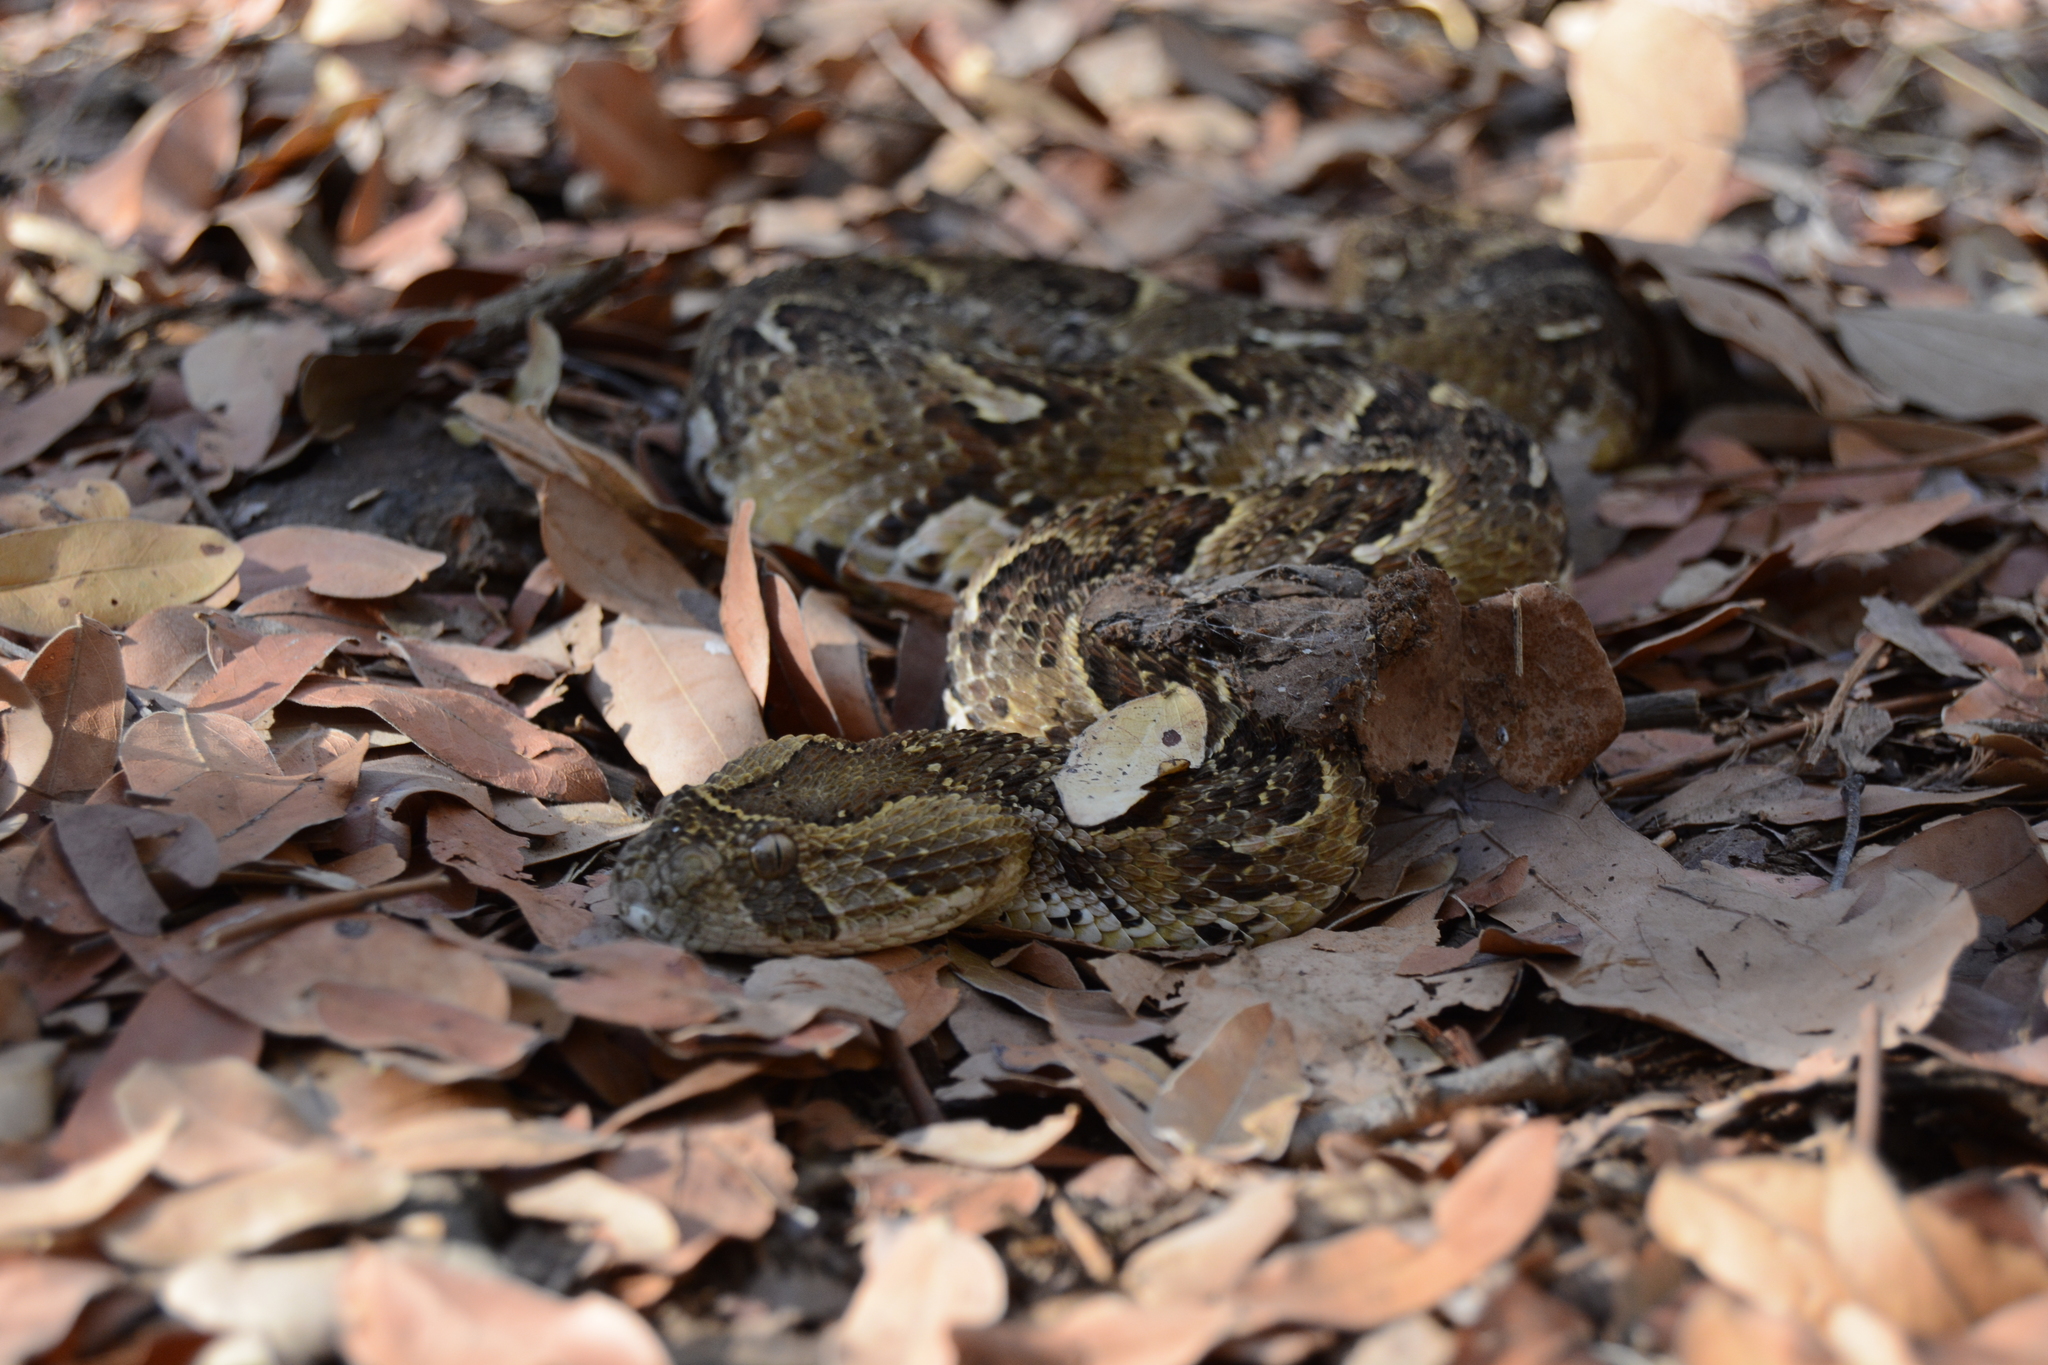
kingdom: Animalia
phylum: Chordata
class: Squamata
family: Viperidae
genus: Bitis
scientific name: Bitis arietans
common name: Puff adder
